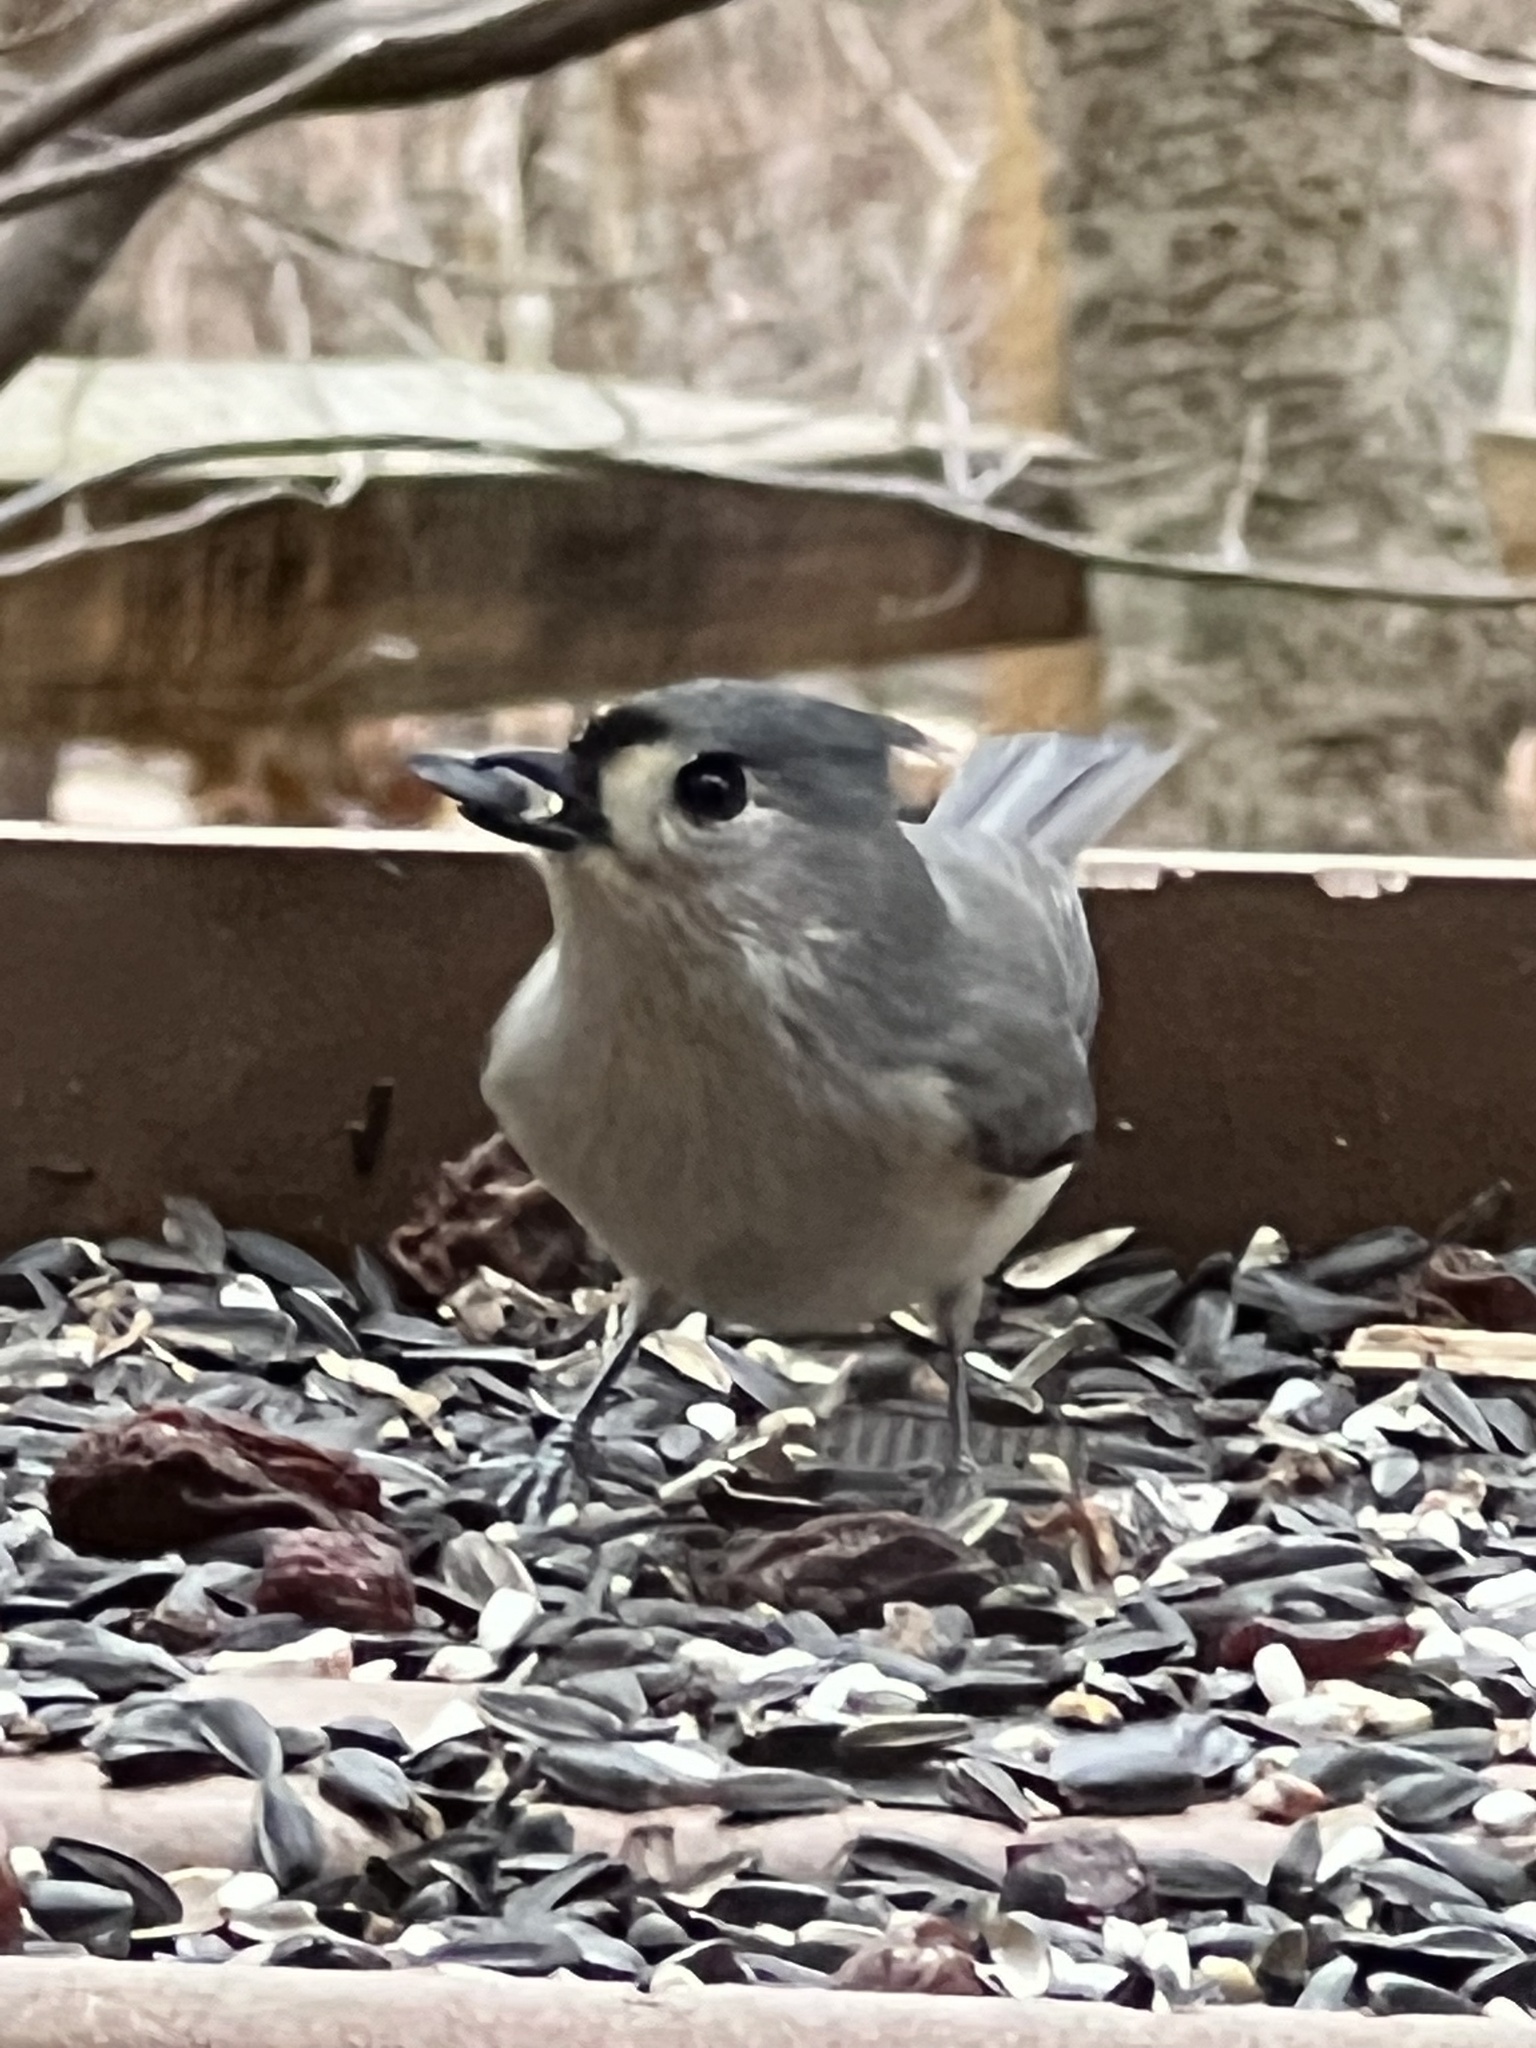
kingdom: Animalia
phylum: Chordata
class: Aves
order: Passeriformes
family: Paridae
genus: Baeolophus
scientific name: Baeolophus bicolor
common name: Tufted titmouse
